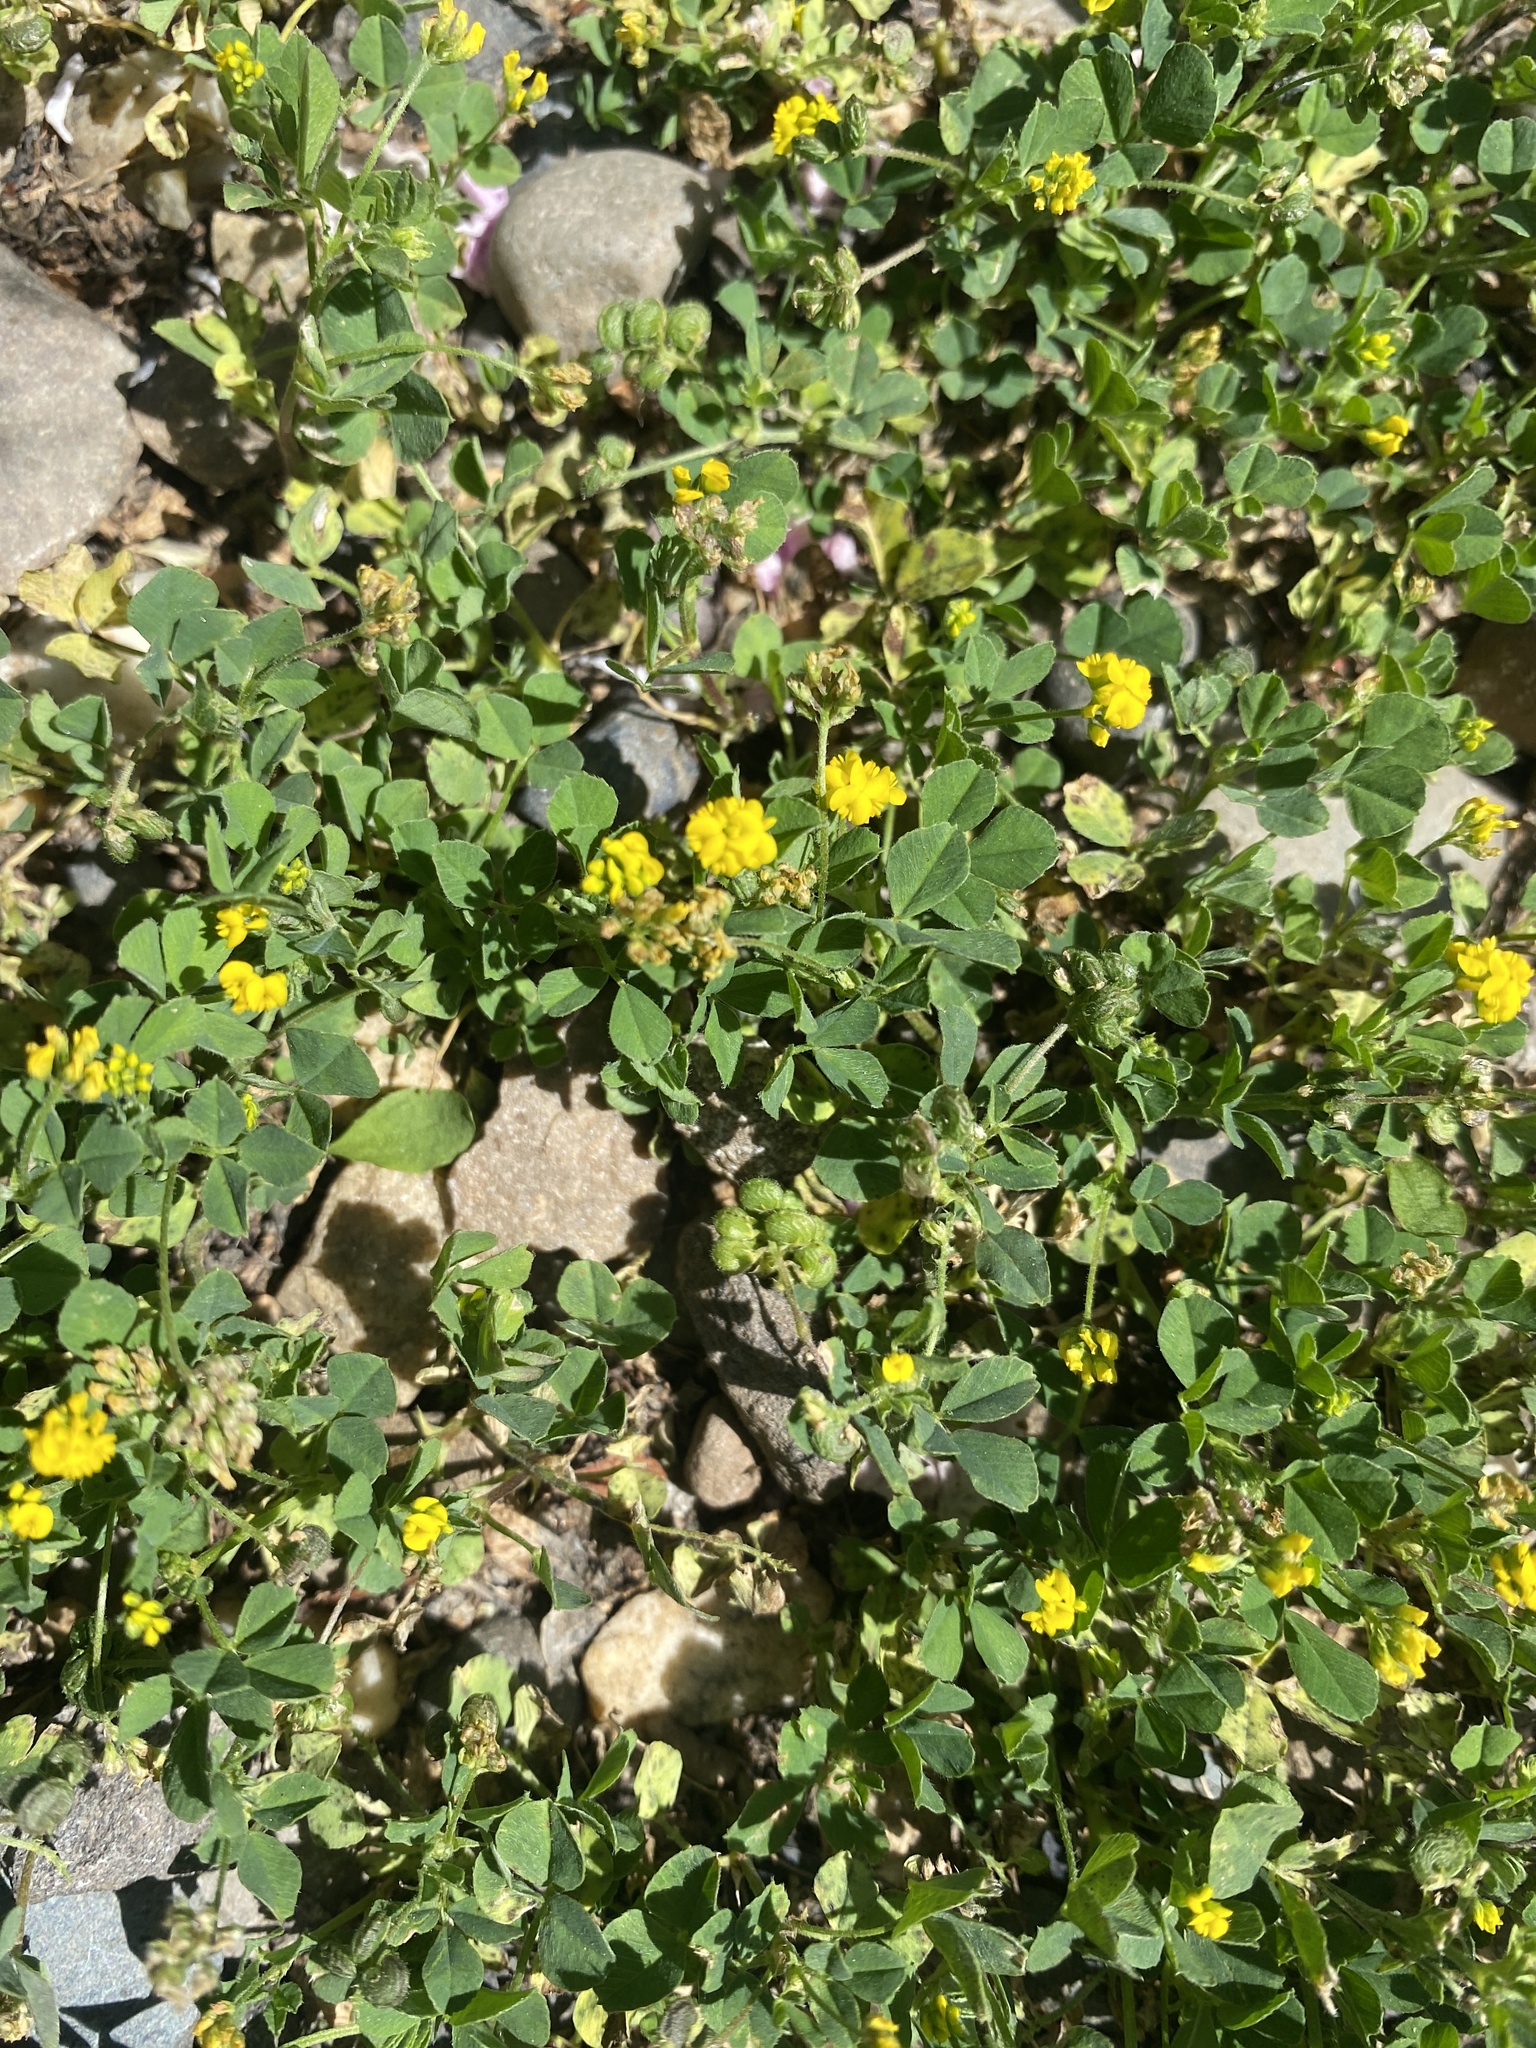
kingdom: Plantae
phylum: Tracheophyta
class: Magnoliopsida
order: Fabales
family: Fabaceae
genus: Medicago
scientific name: Medicago lupulina
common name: Black medick
